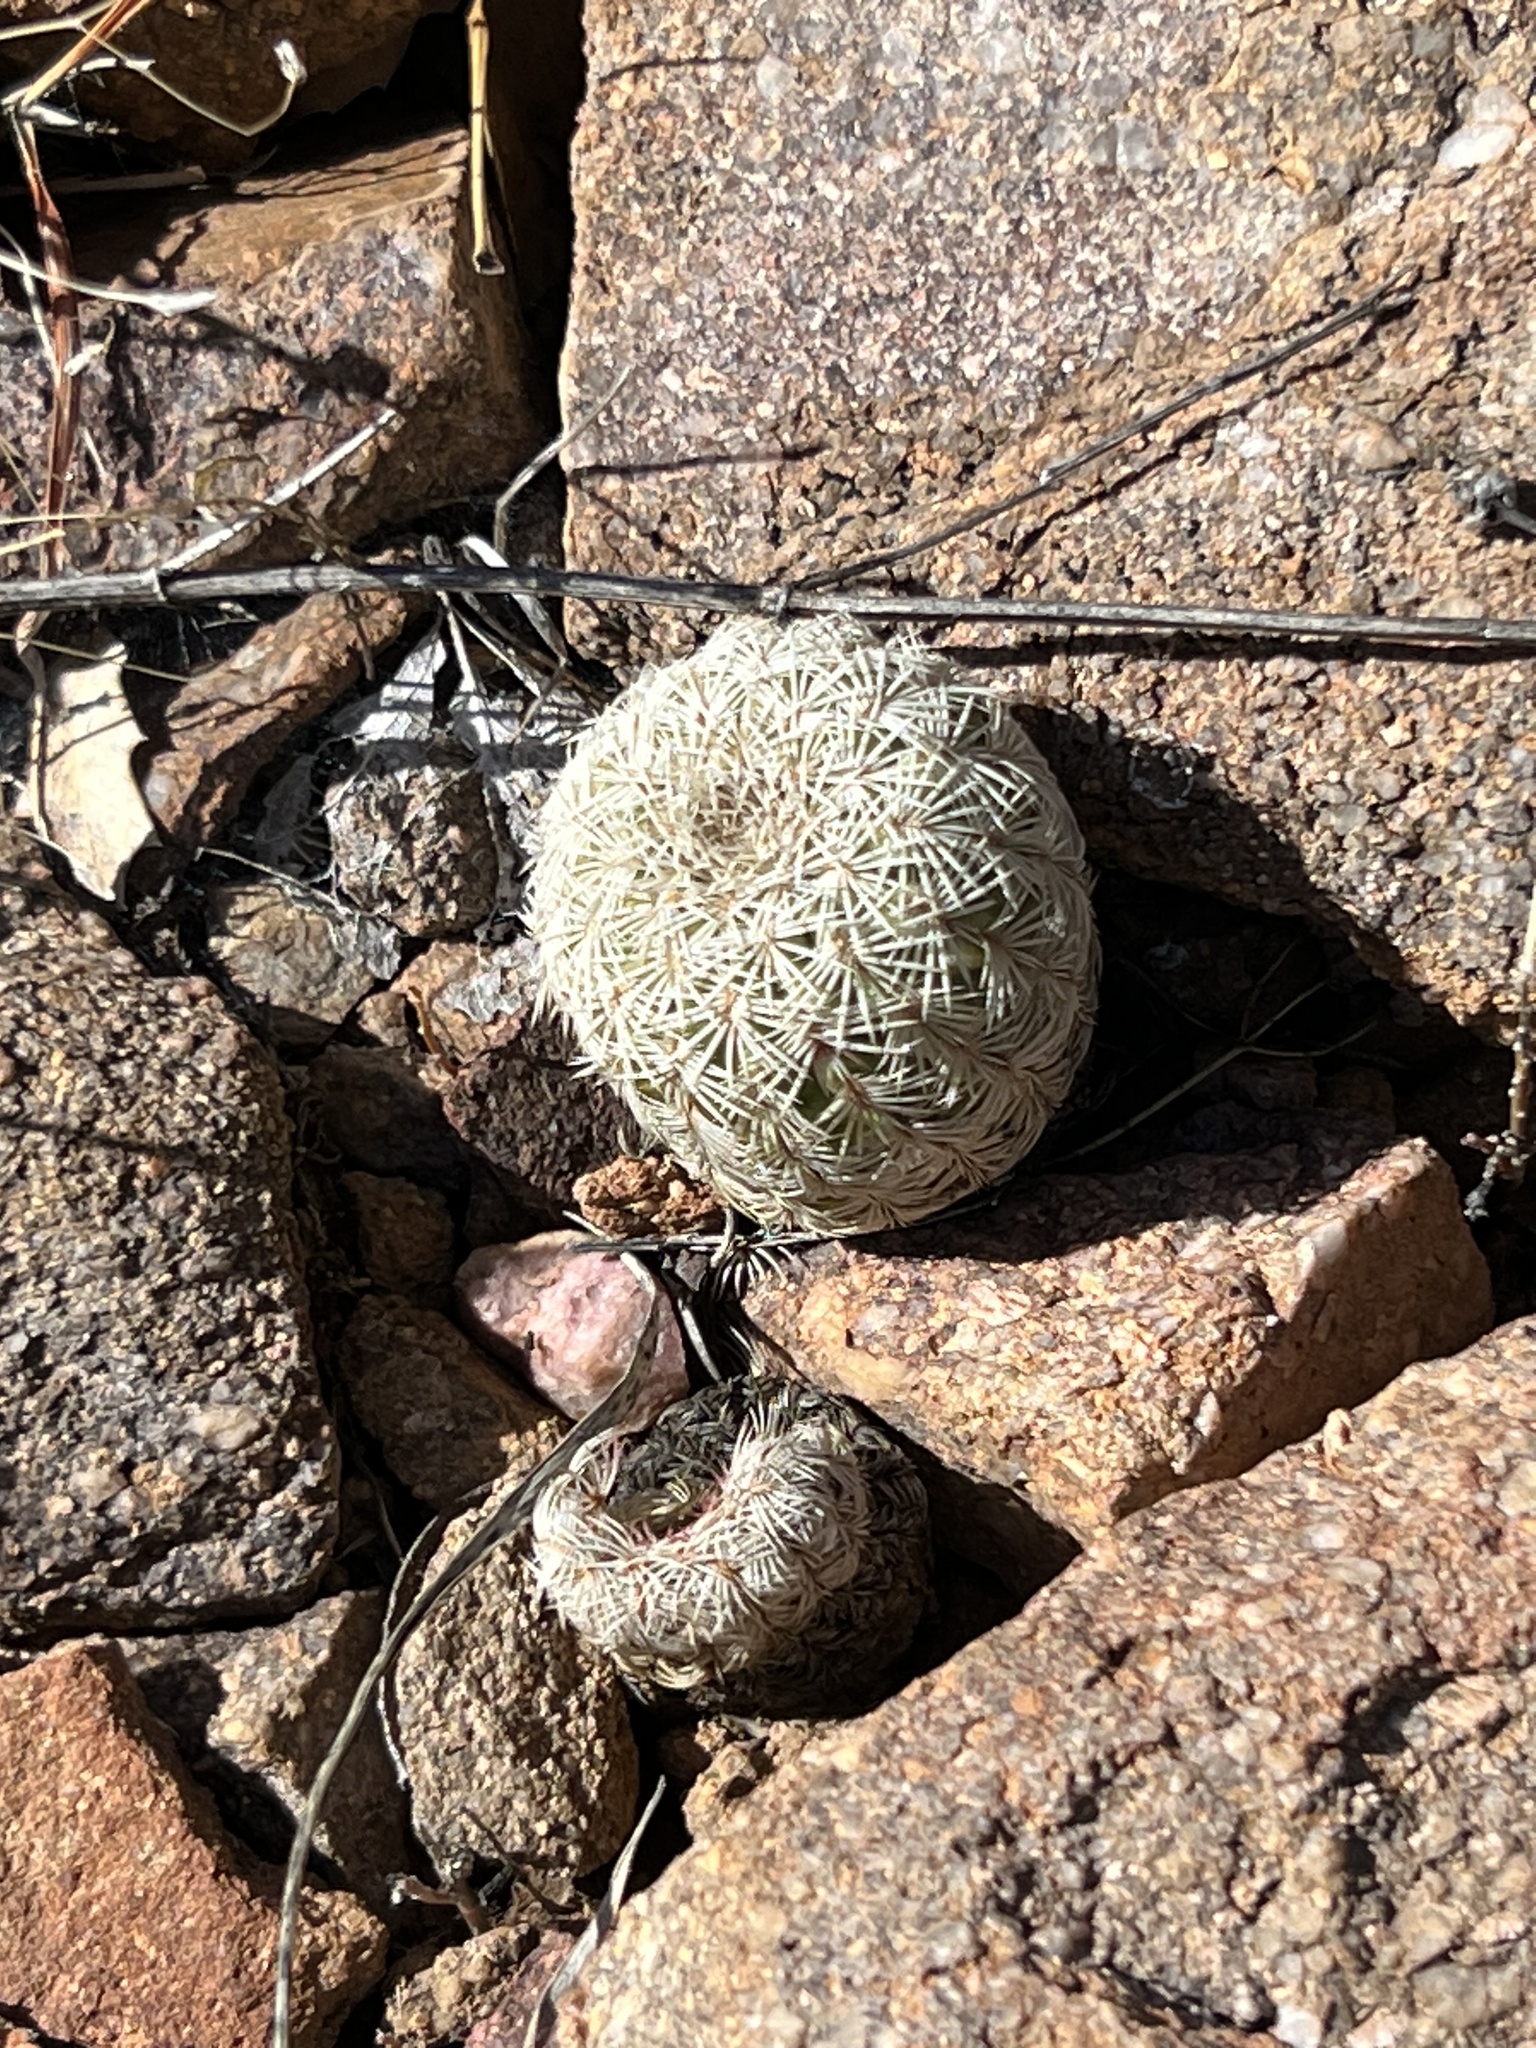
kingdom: Plantae
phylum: Tracheophyta
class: Magnoliopsida
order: Caryophyllales
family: Cactaceae
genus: Echinocereus
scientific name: Echinocereus rigidissimus
